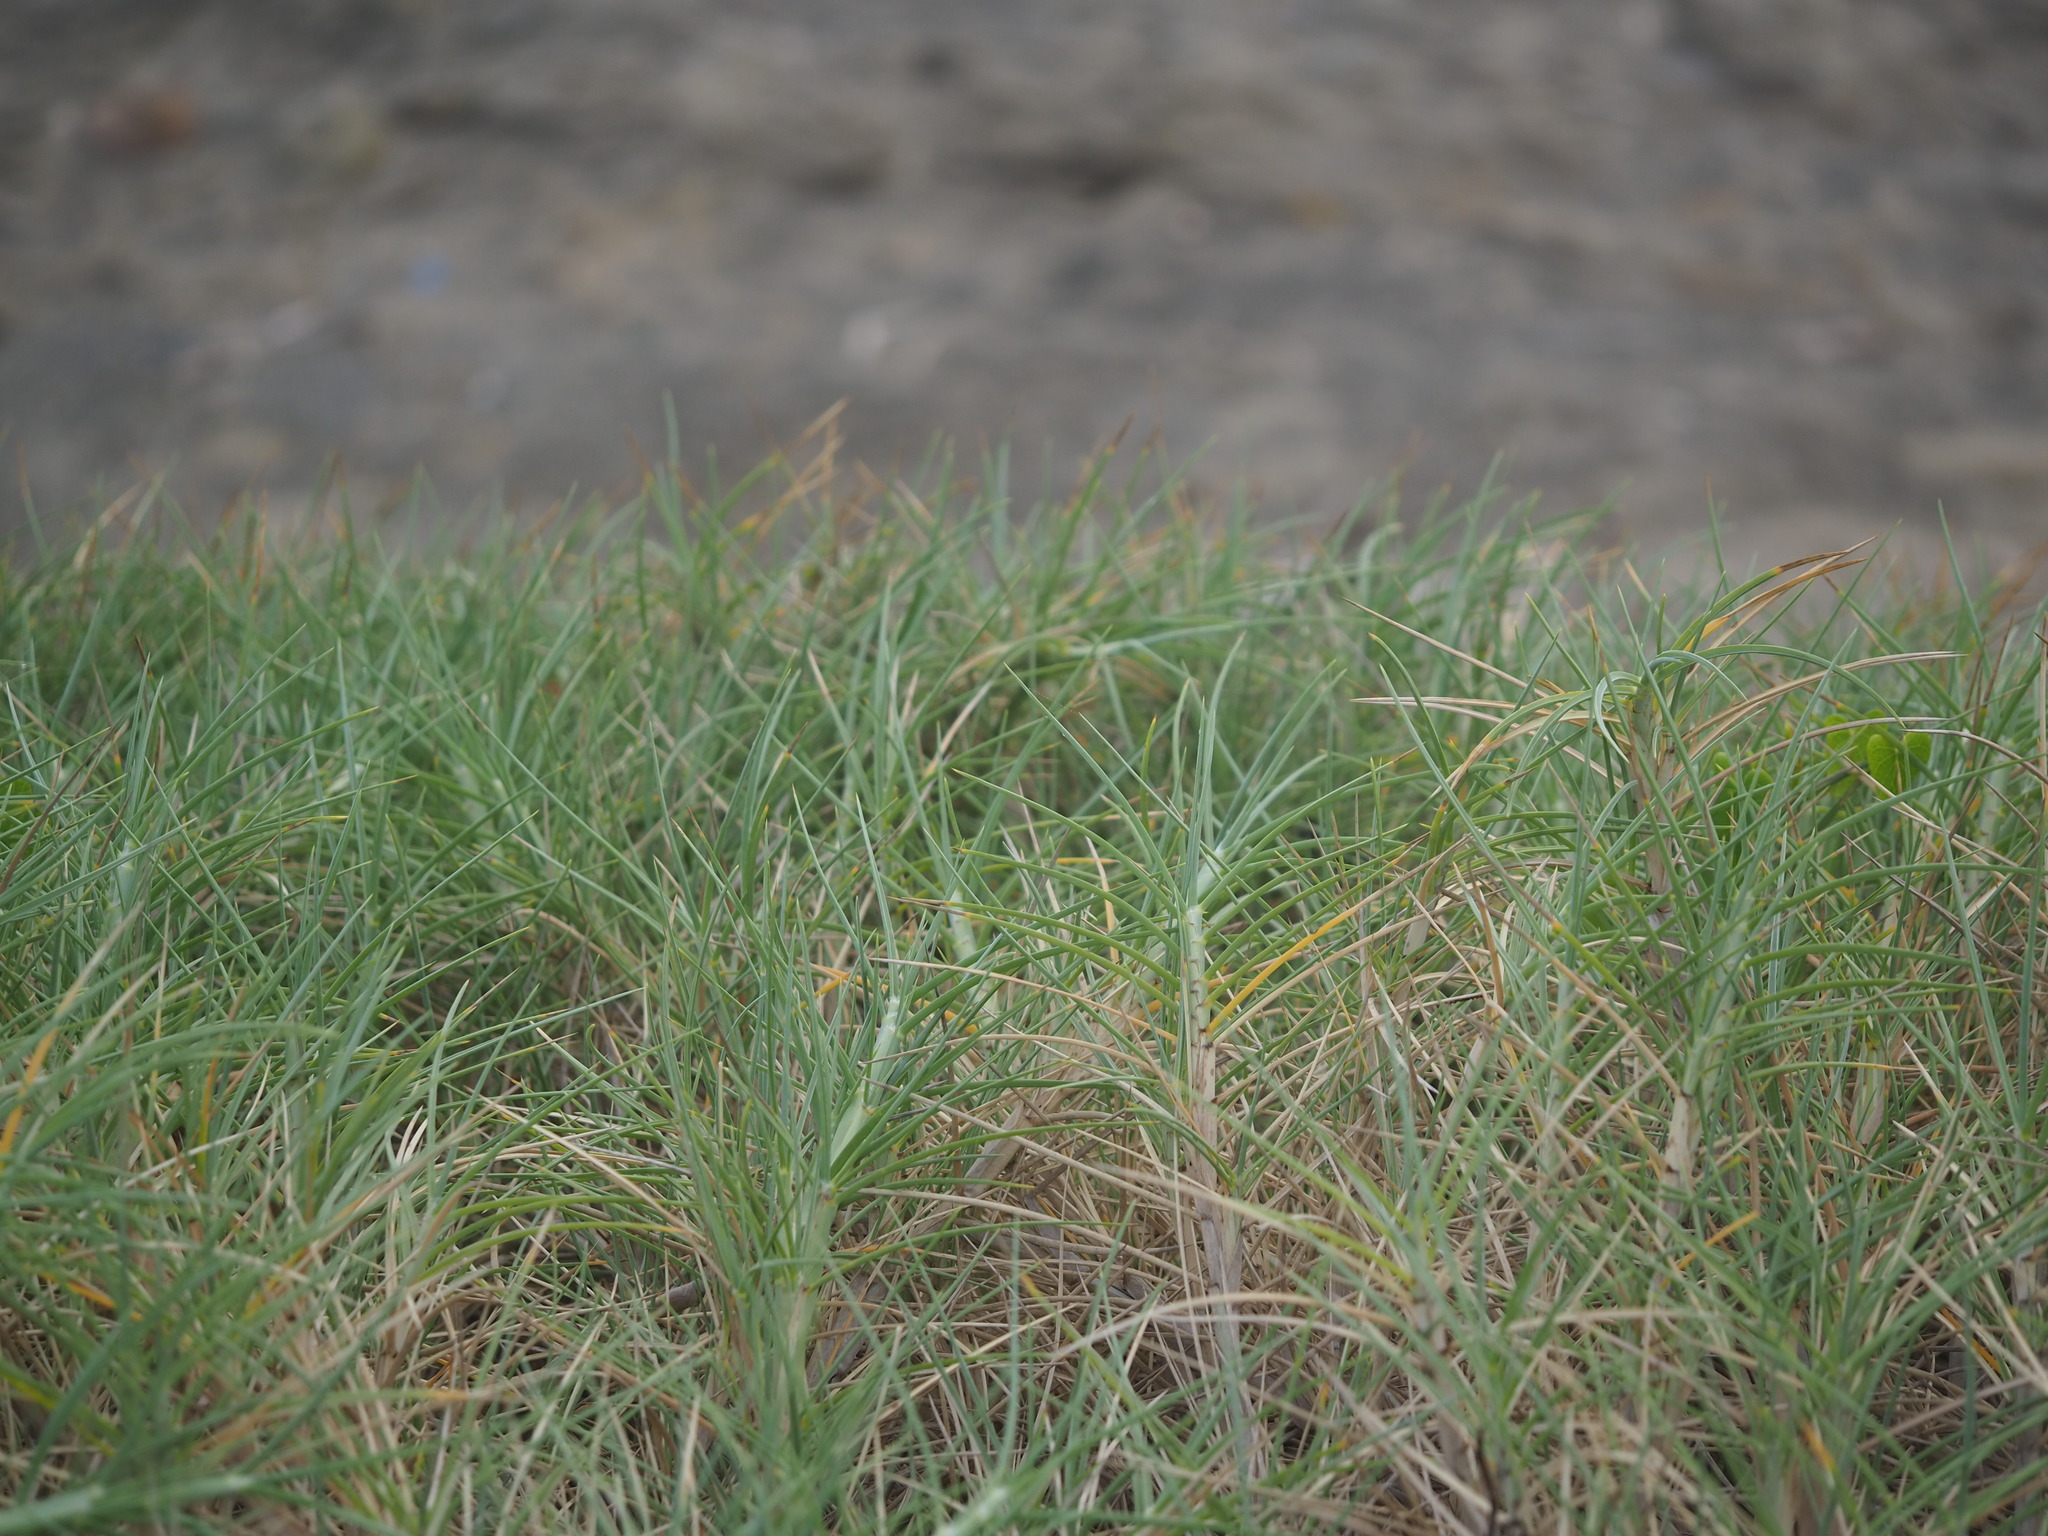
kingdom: Plantae
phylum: Tracheophyta
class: Liliopsida
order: Poales
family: Poaceae
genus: Spinifex
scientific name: Spinifex littoreus
